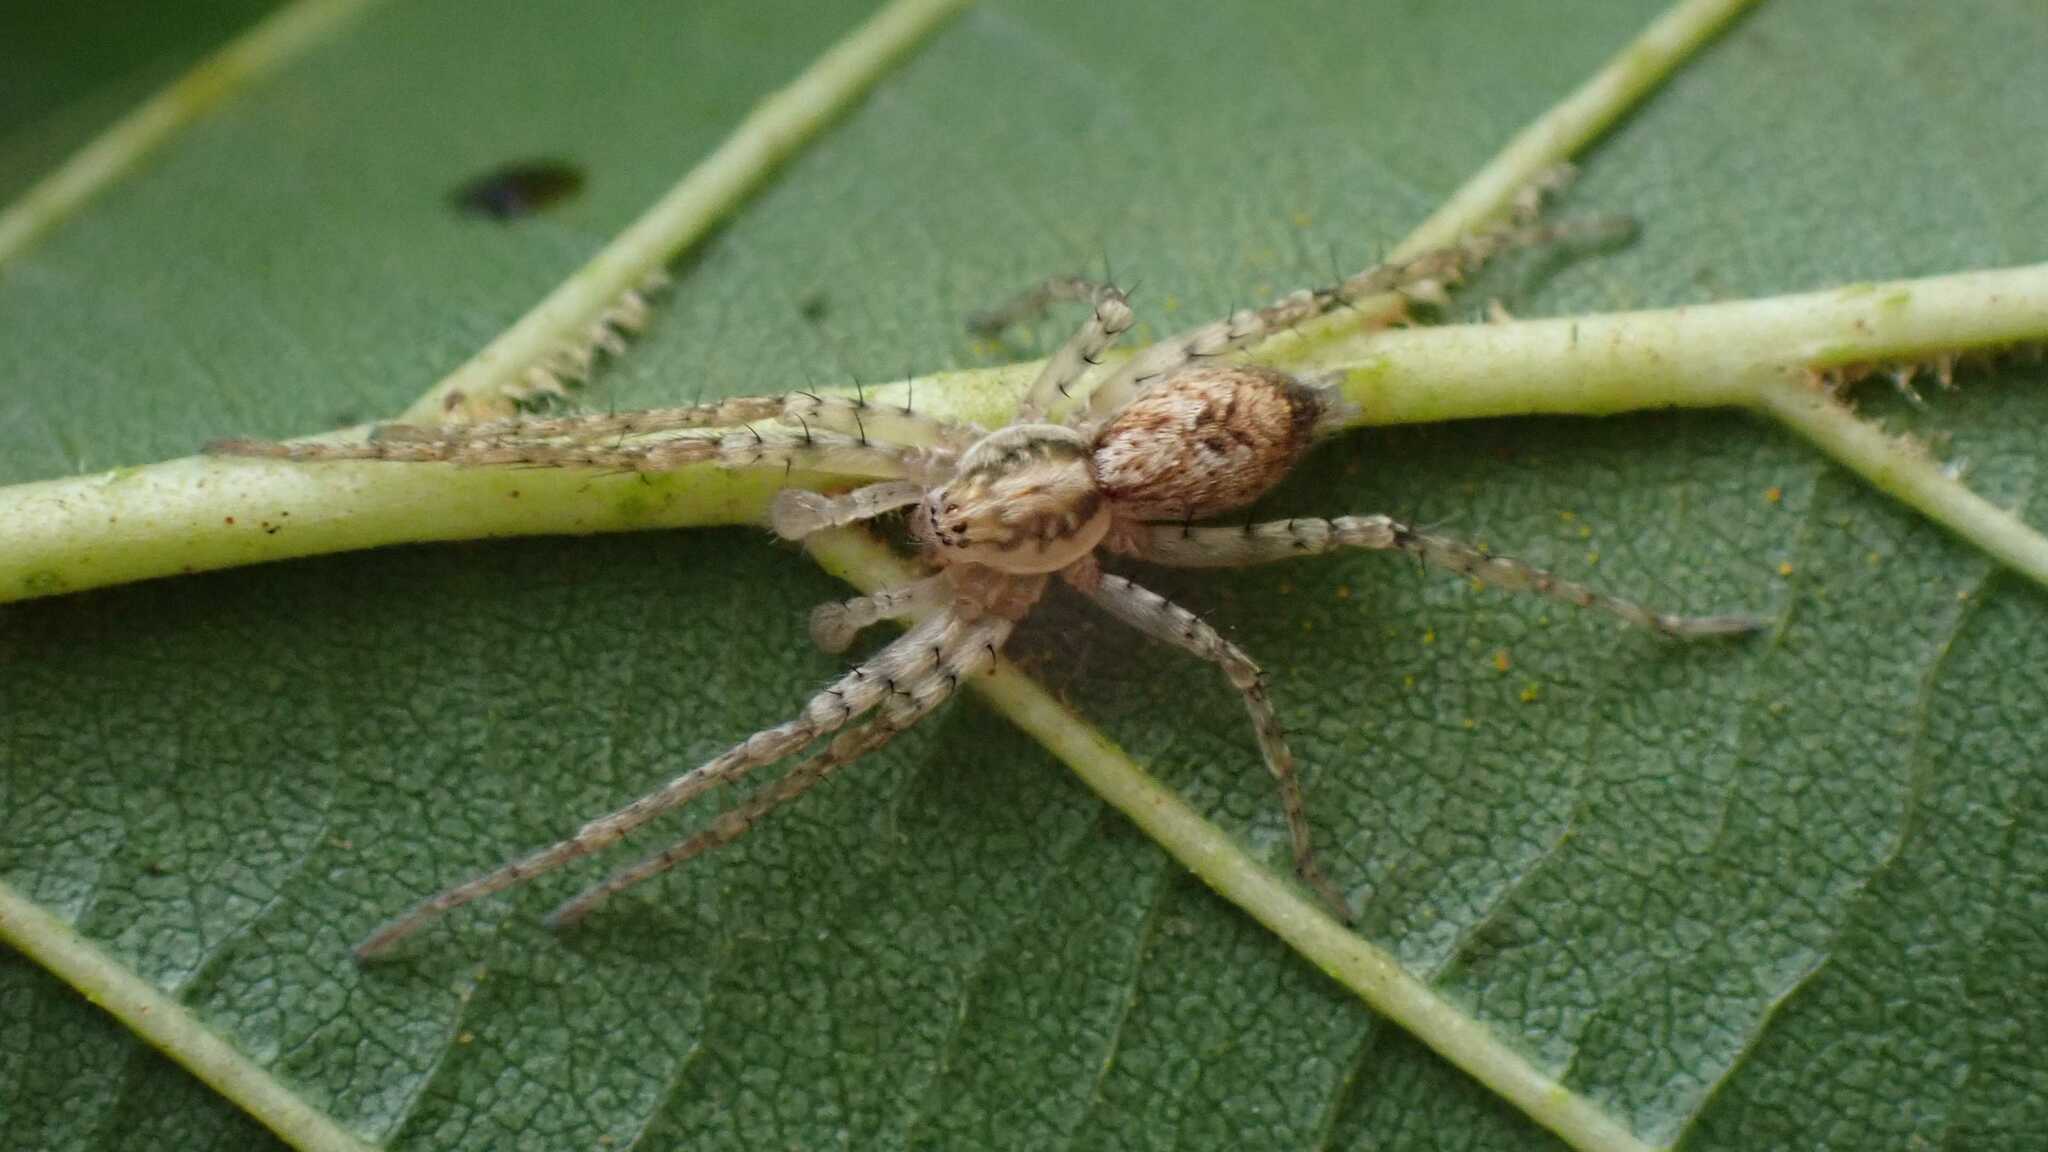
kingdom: Animalia
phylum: Arthropoda
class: Arachnida
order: Araneae
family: Anyphaenidae
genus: Anyphaena
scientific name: Anyphaena accentuata
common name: Buzzing spider
